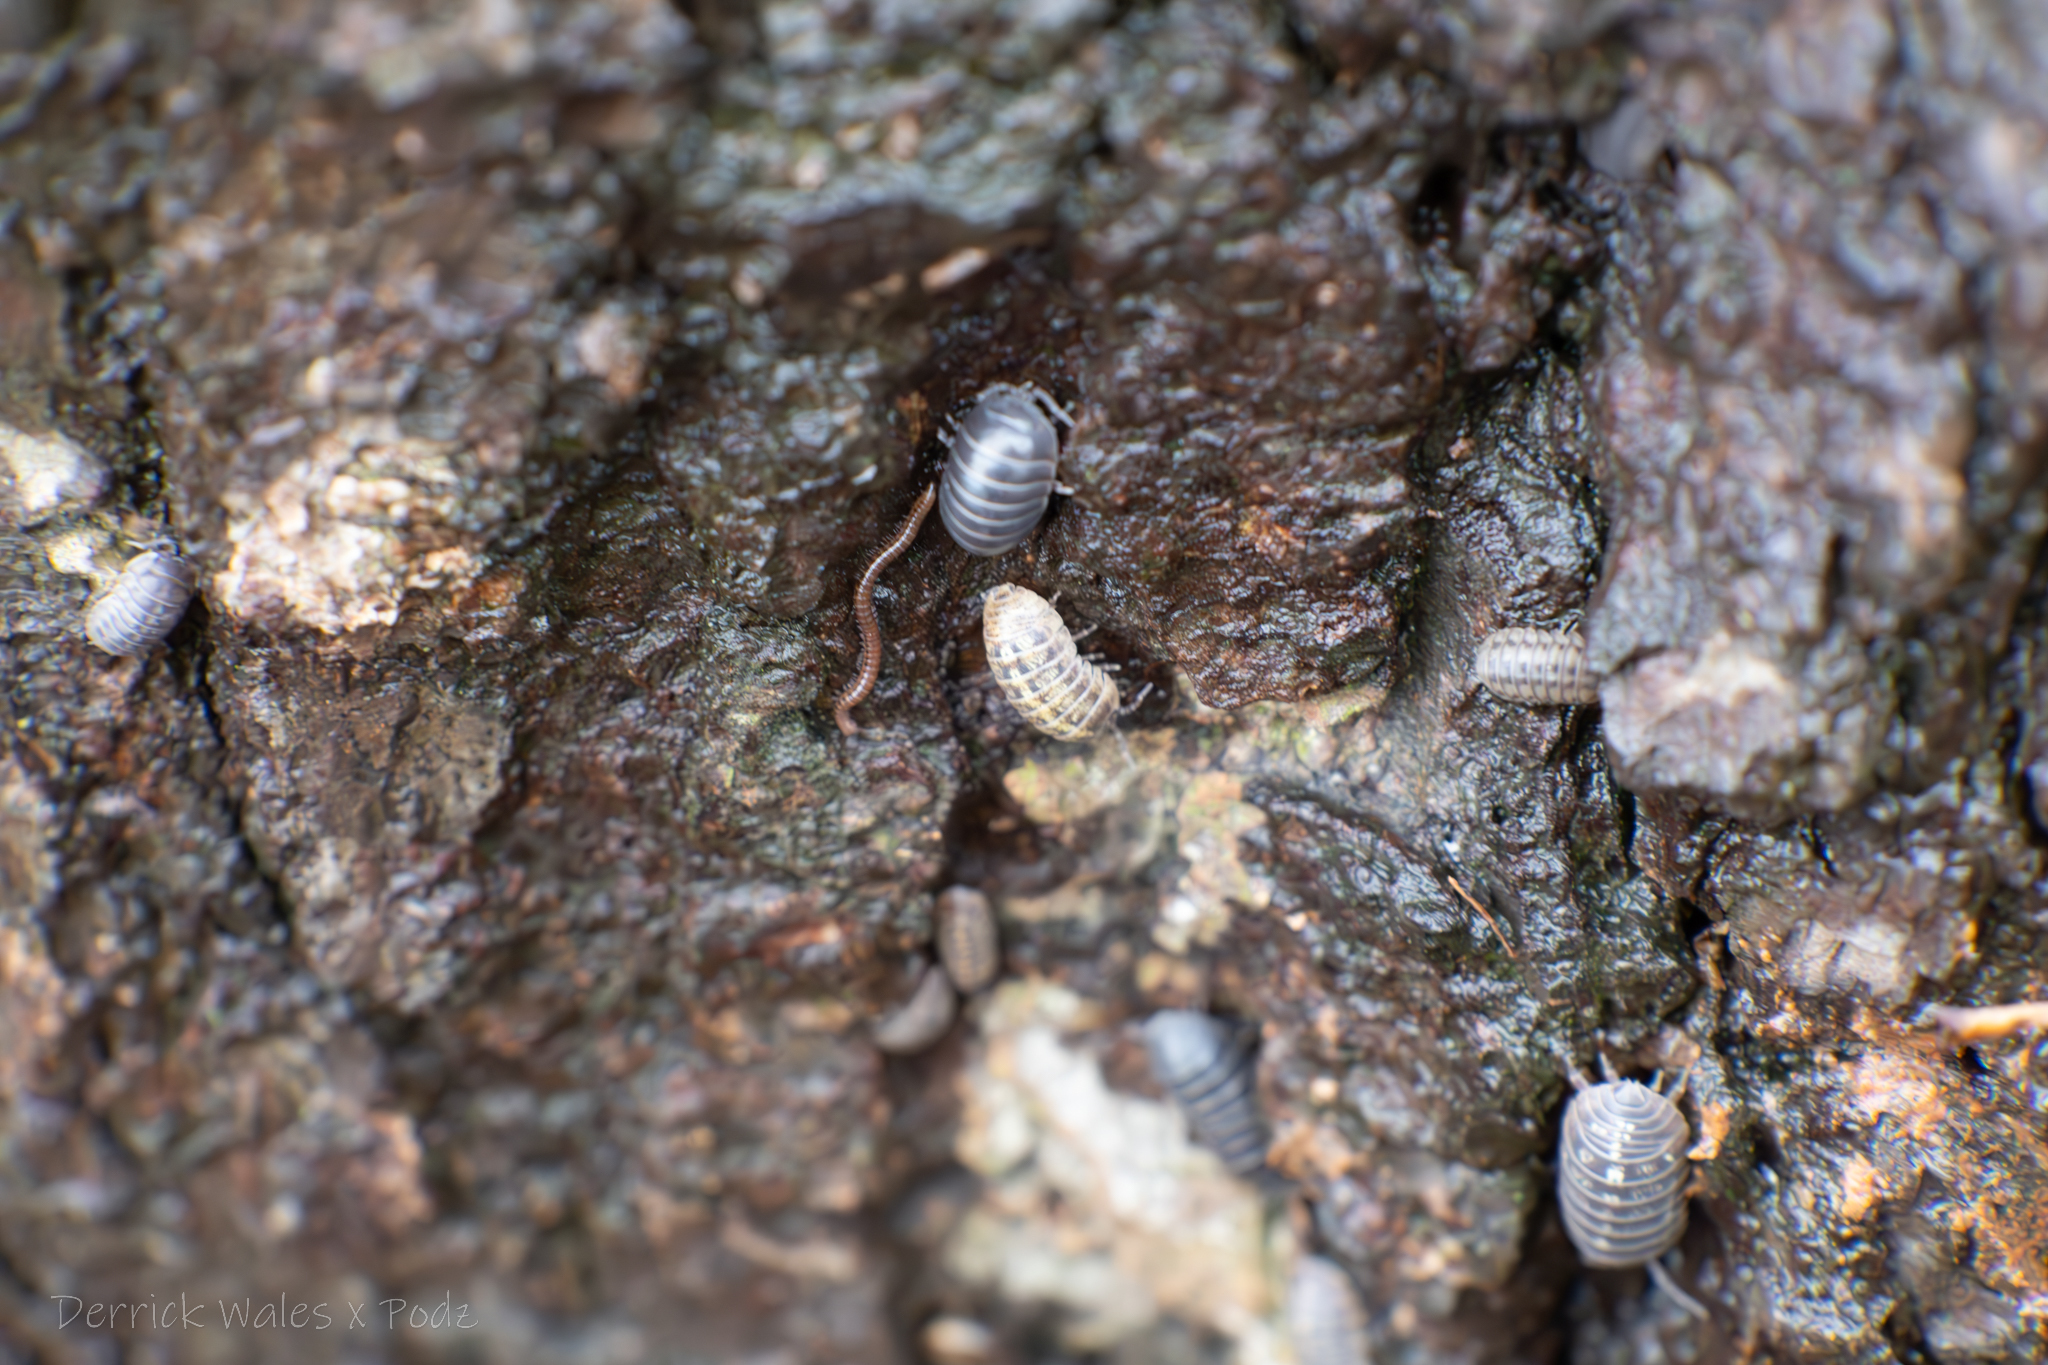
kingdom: Animalia
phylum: Arthropoda
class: Malacostraca
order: Isopoda
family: Armadillidiidae
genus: Armadillidium
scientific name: Armadillidium vulgare
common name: Common pill woodlouse
